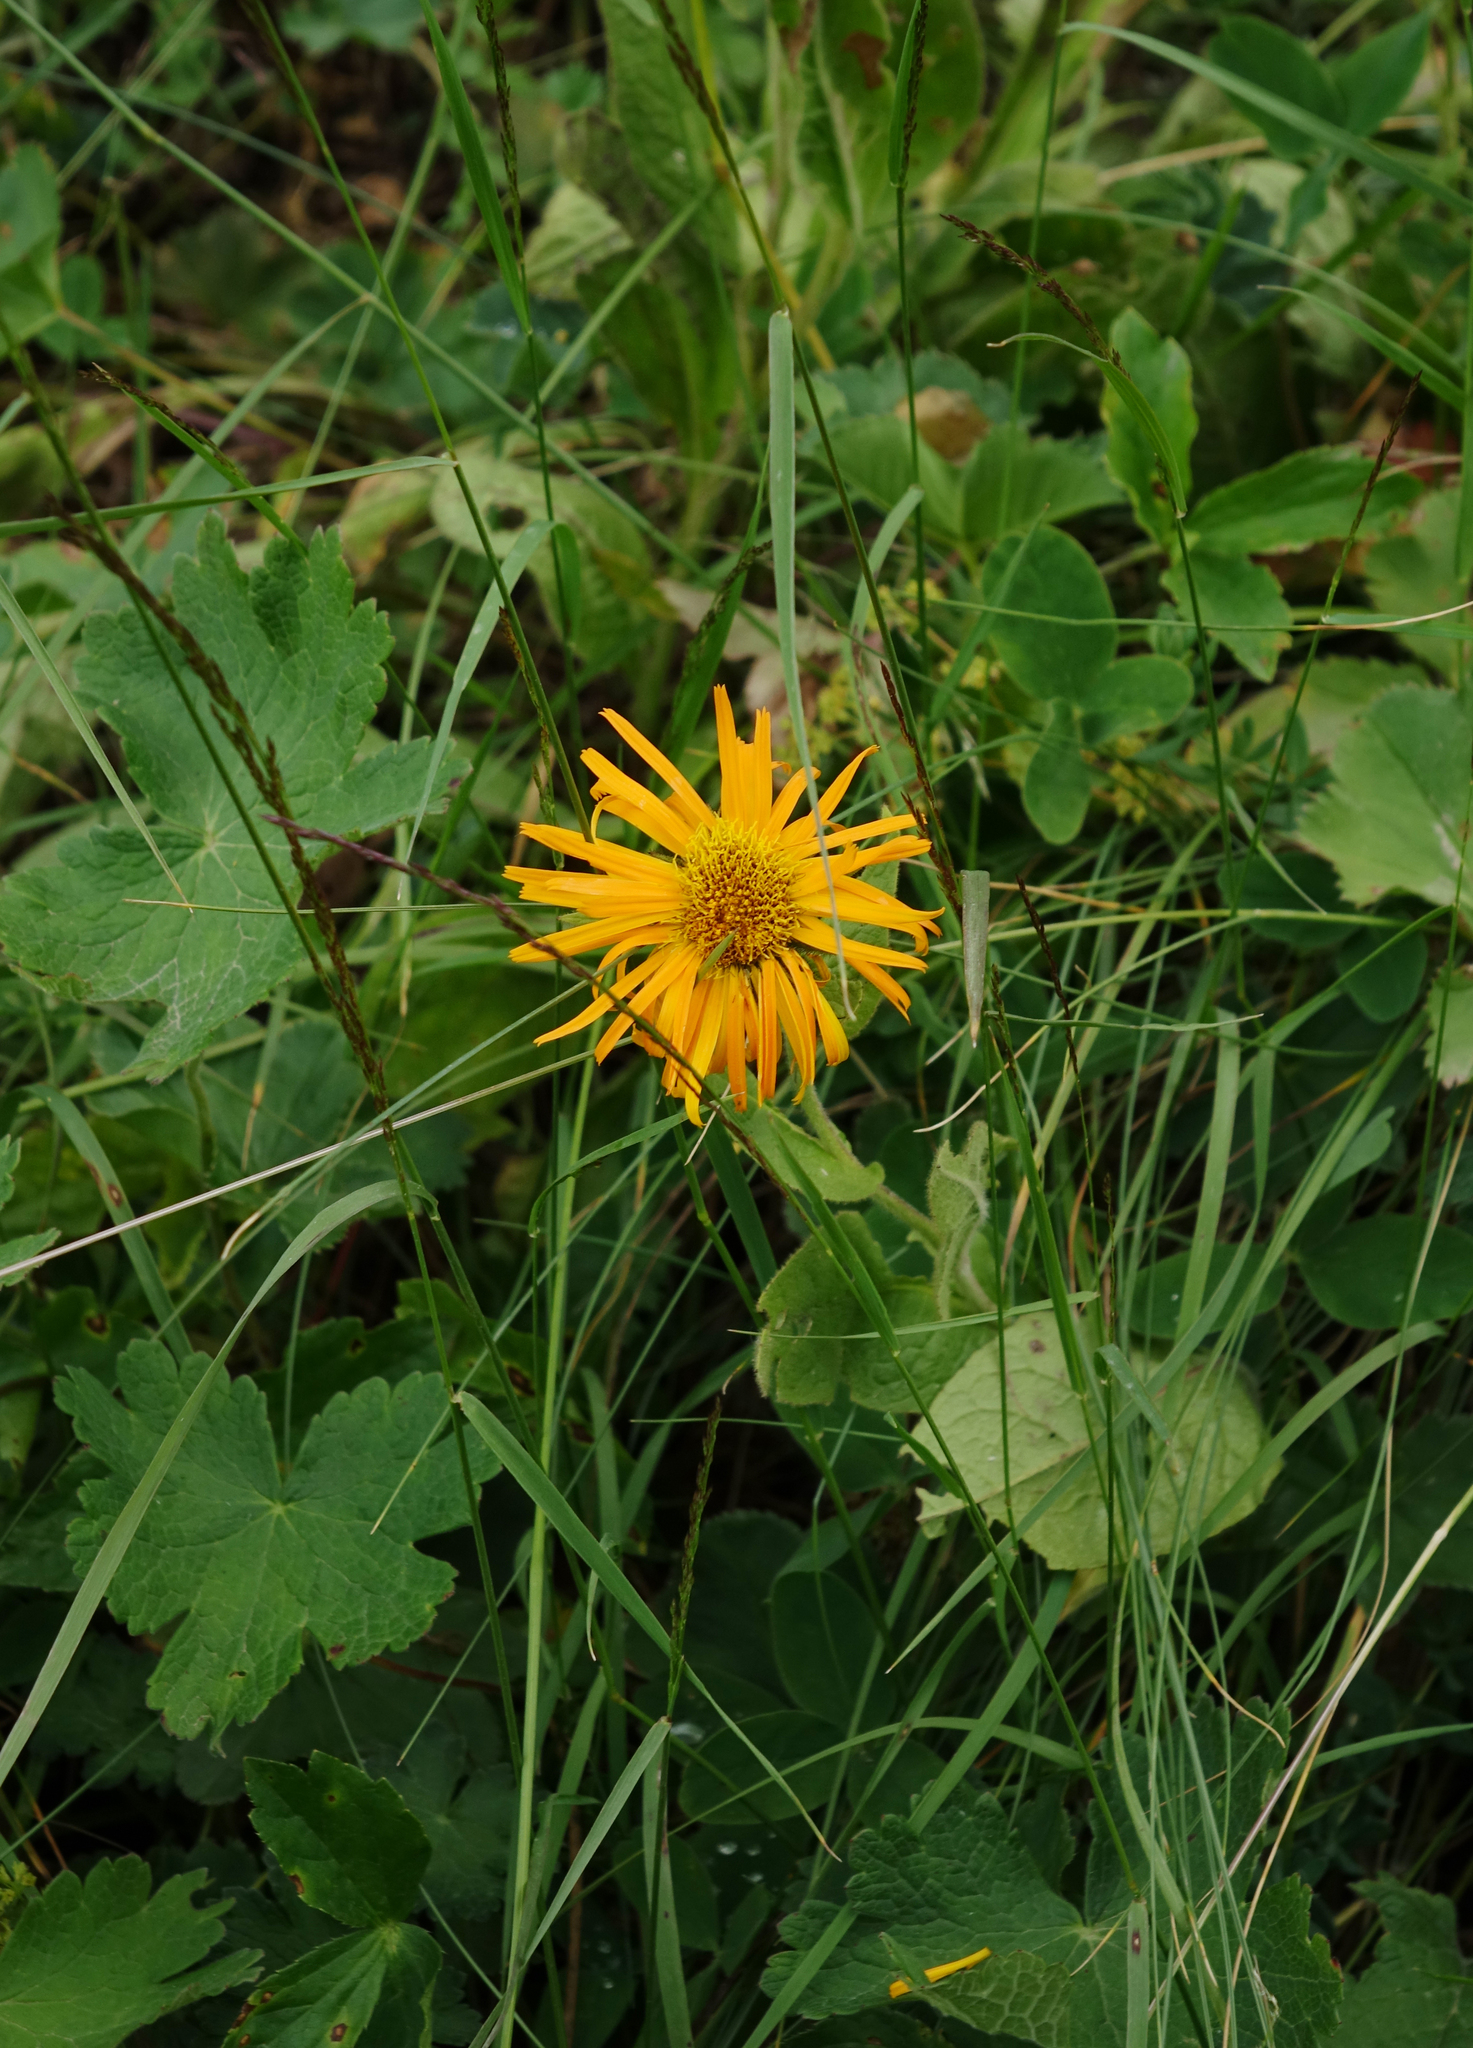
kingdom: Plantae
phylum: Tracheophyta
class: Magnoliopsida
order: Asterales
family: Asteraceae
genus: Pentanema
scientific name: Pentanema orientale
